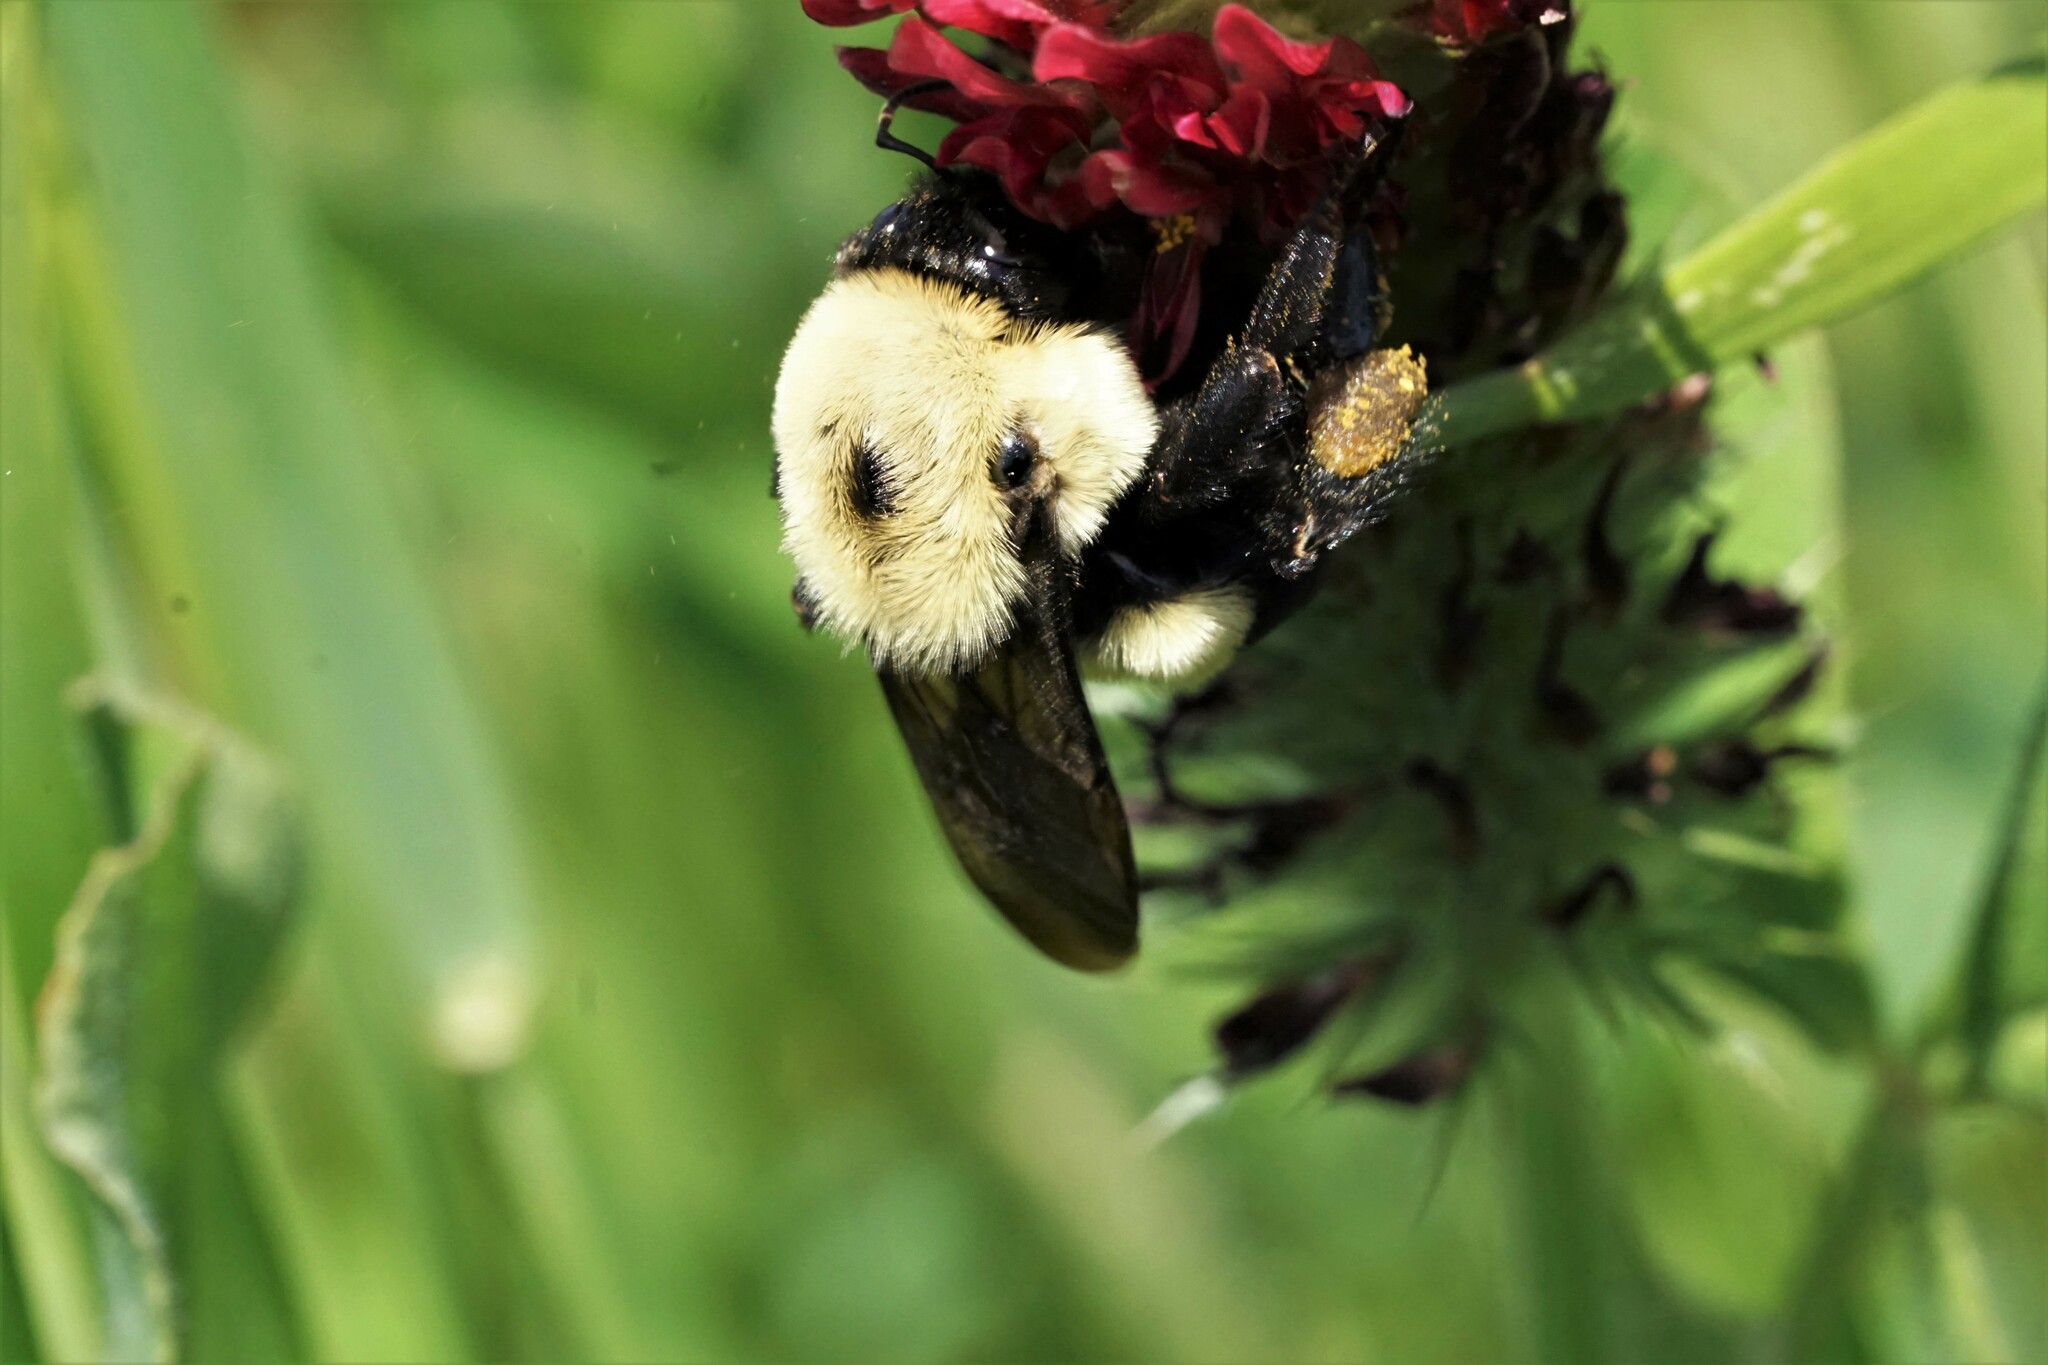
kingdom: Animalia
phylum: Arthropoda
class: Insecta
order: Hymenoptera
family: Apidae
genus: Bombus
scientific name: Bombus griseocollis
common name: Brown-belted bumble bee
